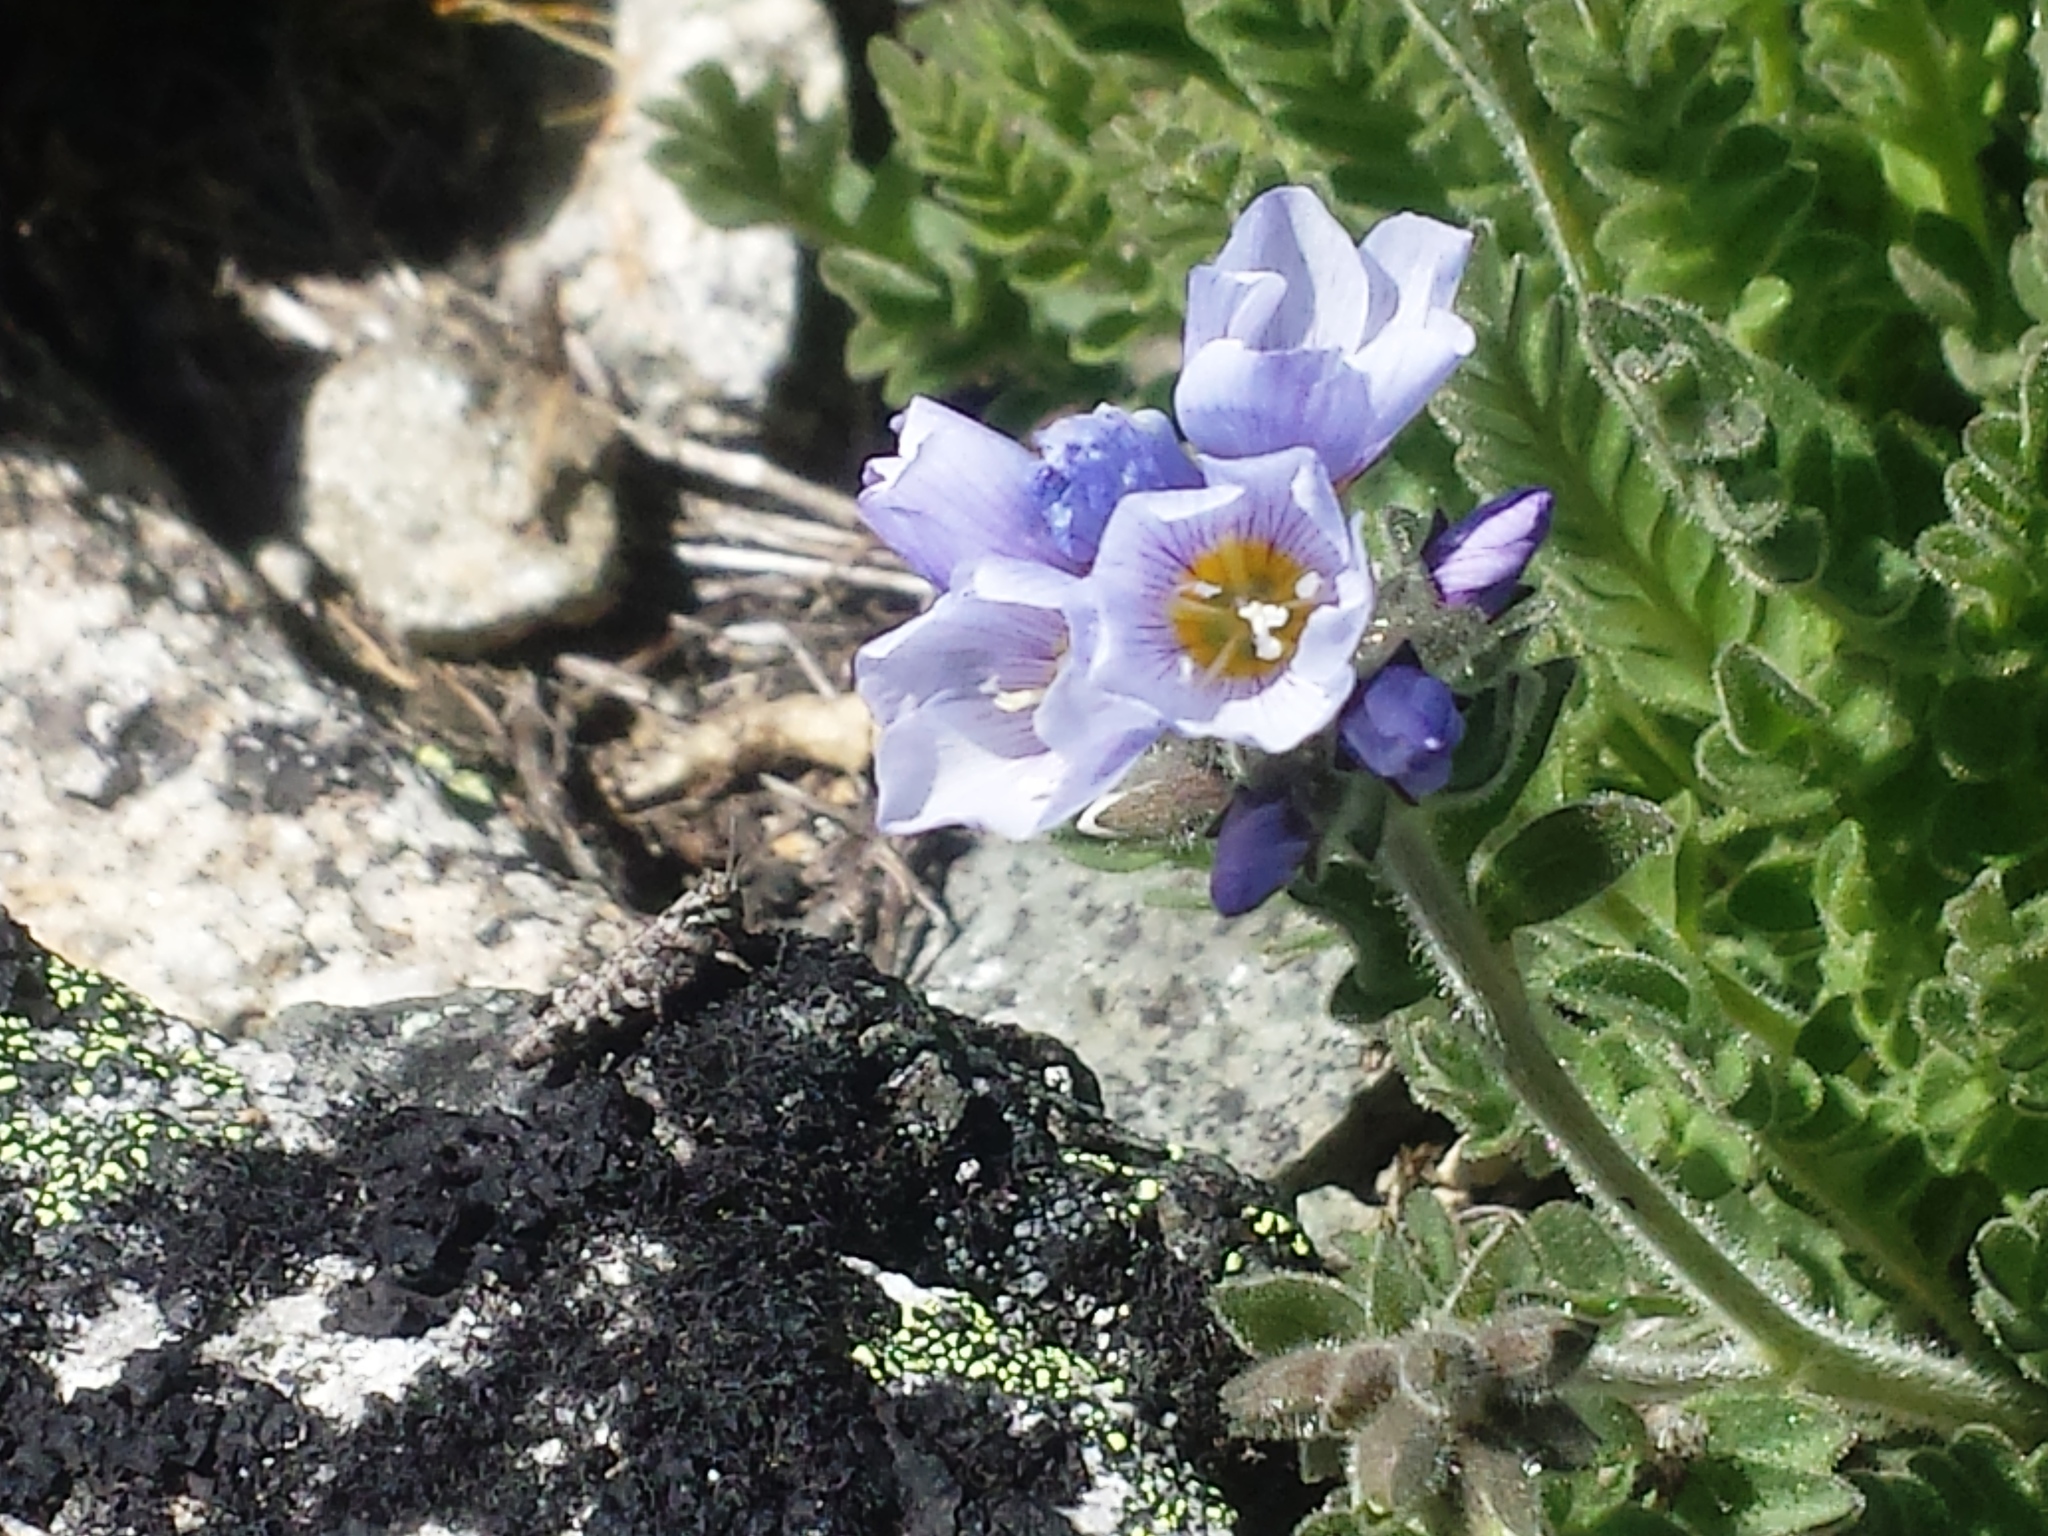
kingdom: Plantae
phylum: Tracheophyta
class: Magnoliopsida
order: Ericales
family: Polemoniaceae
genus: Polemonium
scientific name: Polemonium elegans
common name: Elegant jacob's-ladder
